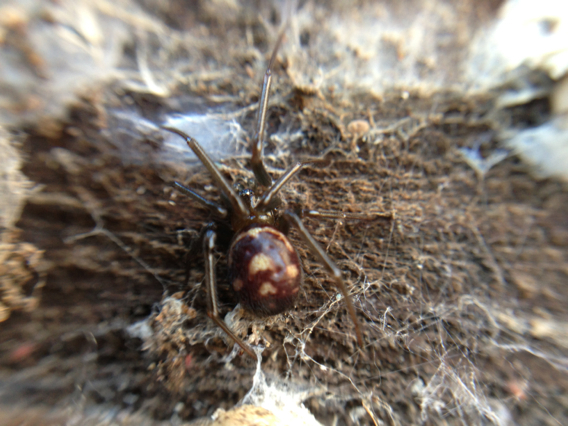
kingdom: Animalia
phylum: Arthropoda
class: Arachnida
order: Araneae
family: Theridiidae
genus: Steatoda
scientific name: Steatoda grossa
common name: False black widow
